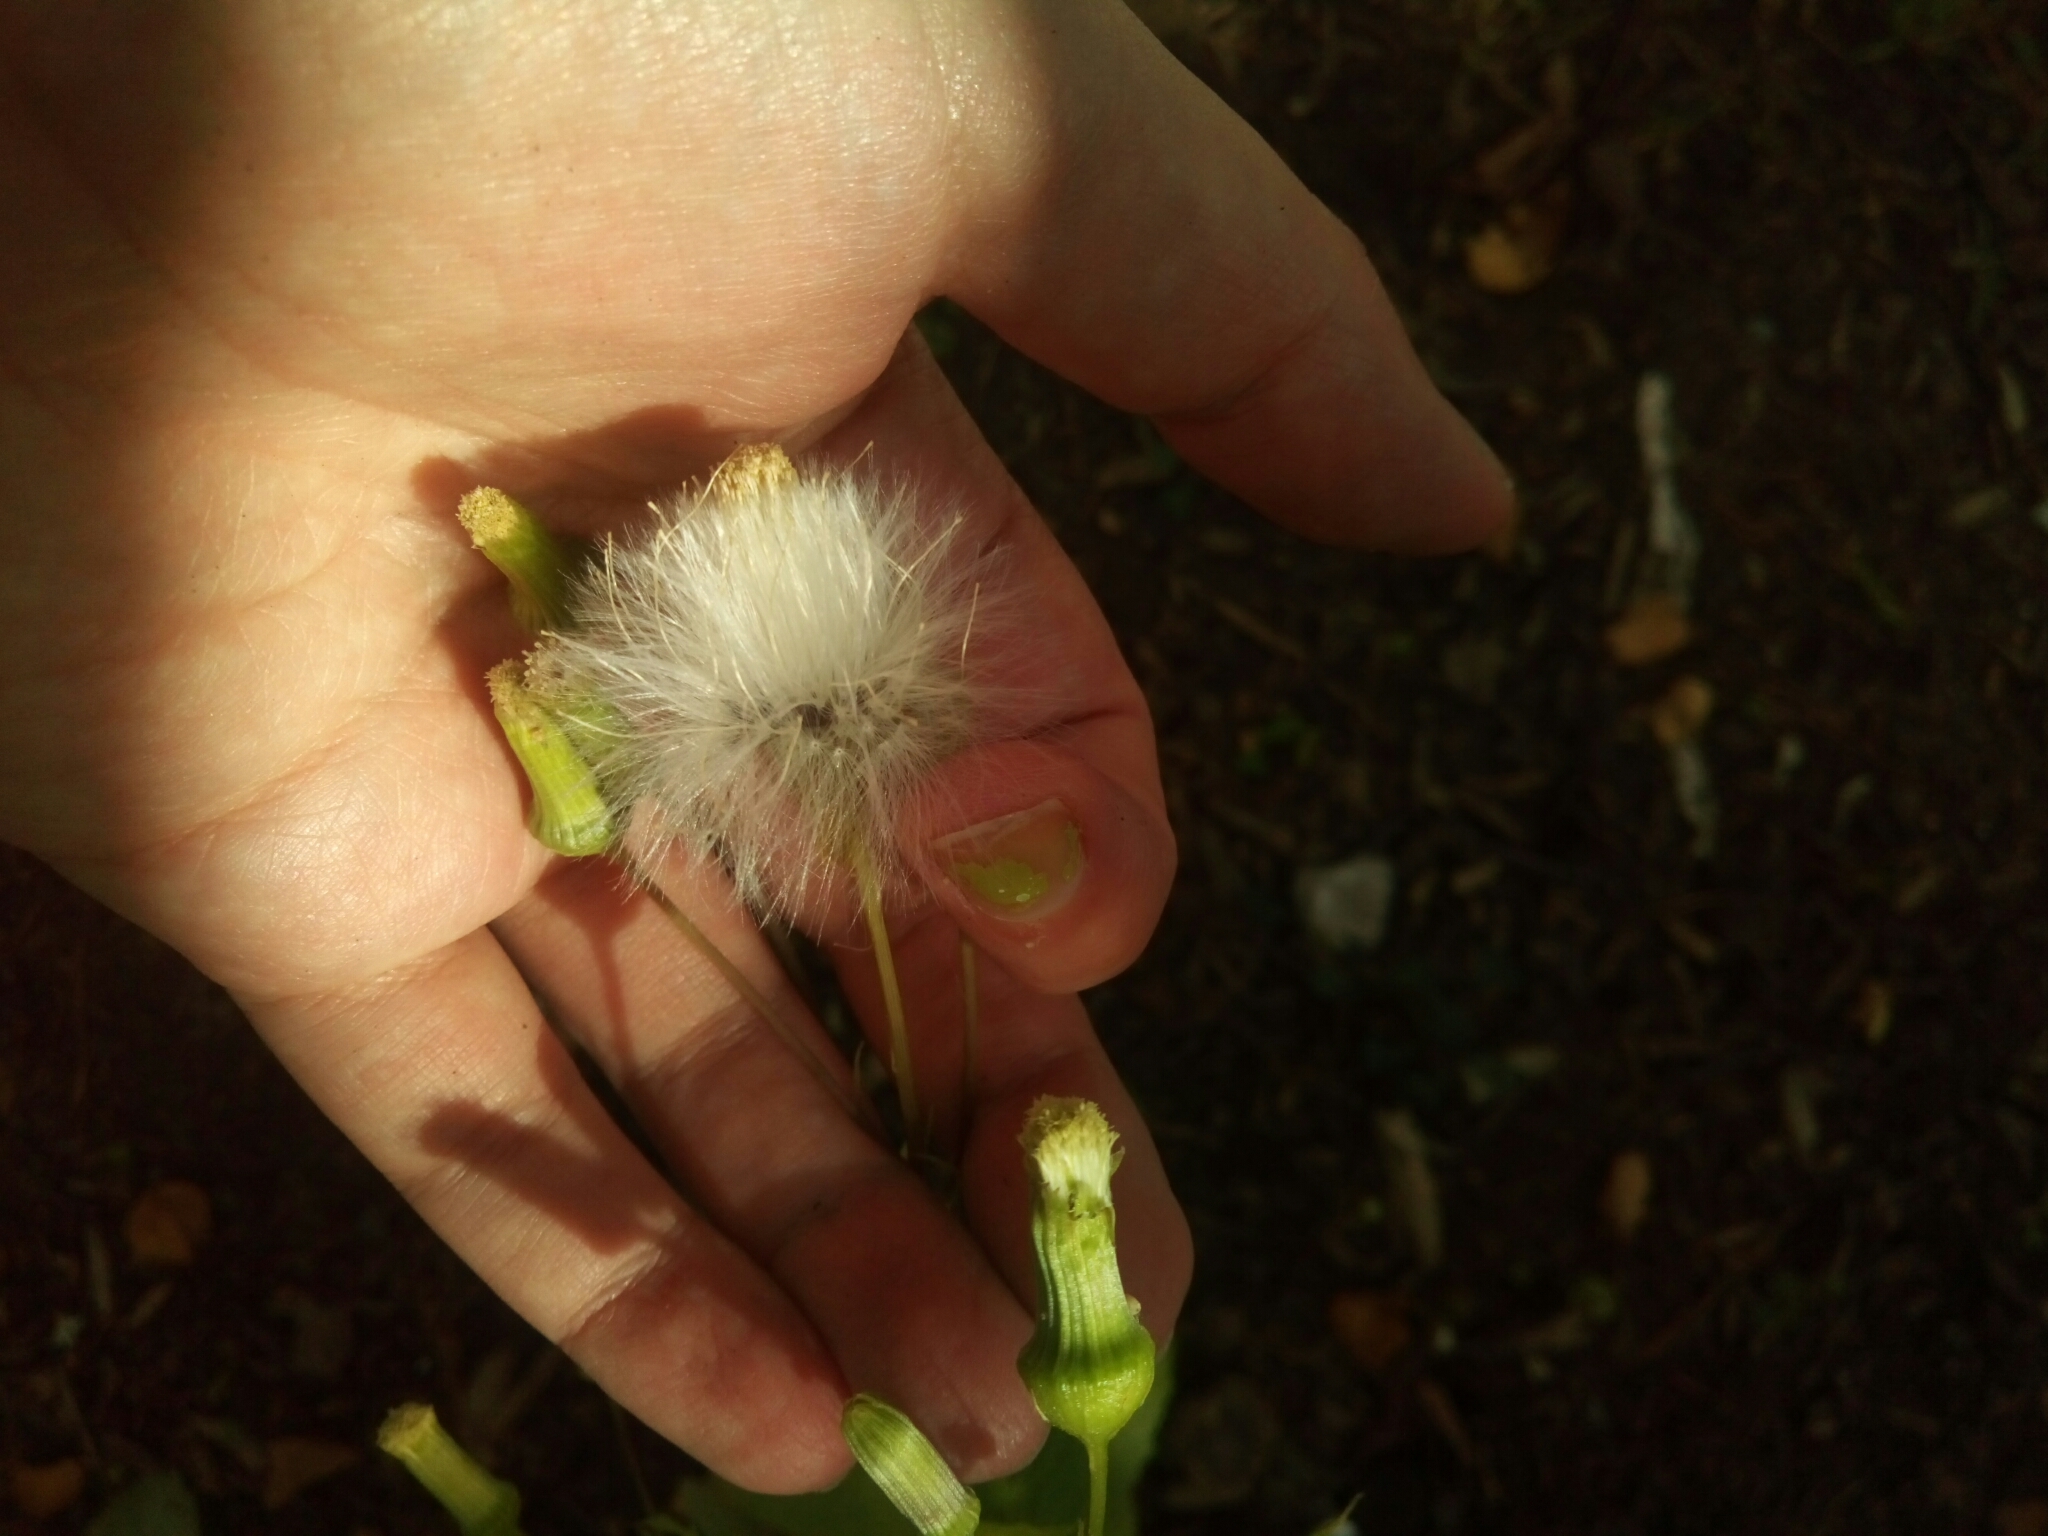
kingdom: Plantae
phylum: Tracheophyta
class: Magnoliopsida
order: Asterales
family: Asteraceae
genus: Erechtites
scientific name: Erechtites hieraciifolius
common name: American burnweed
